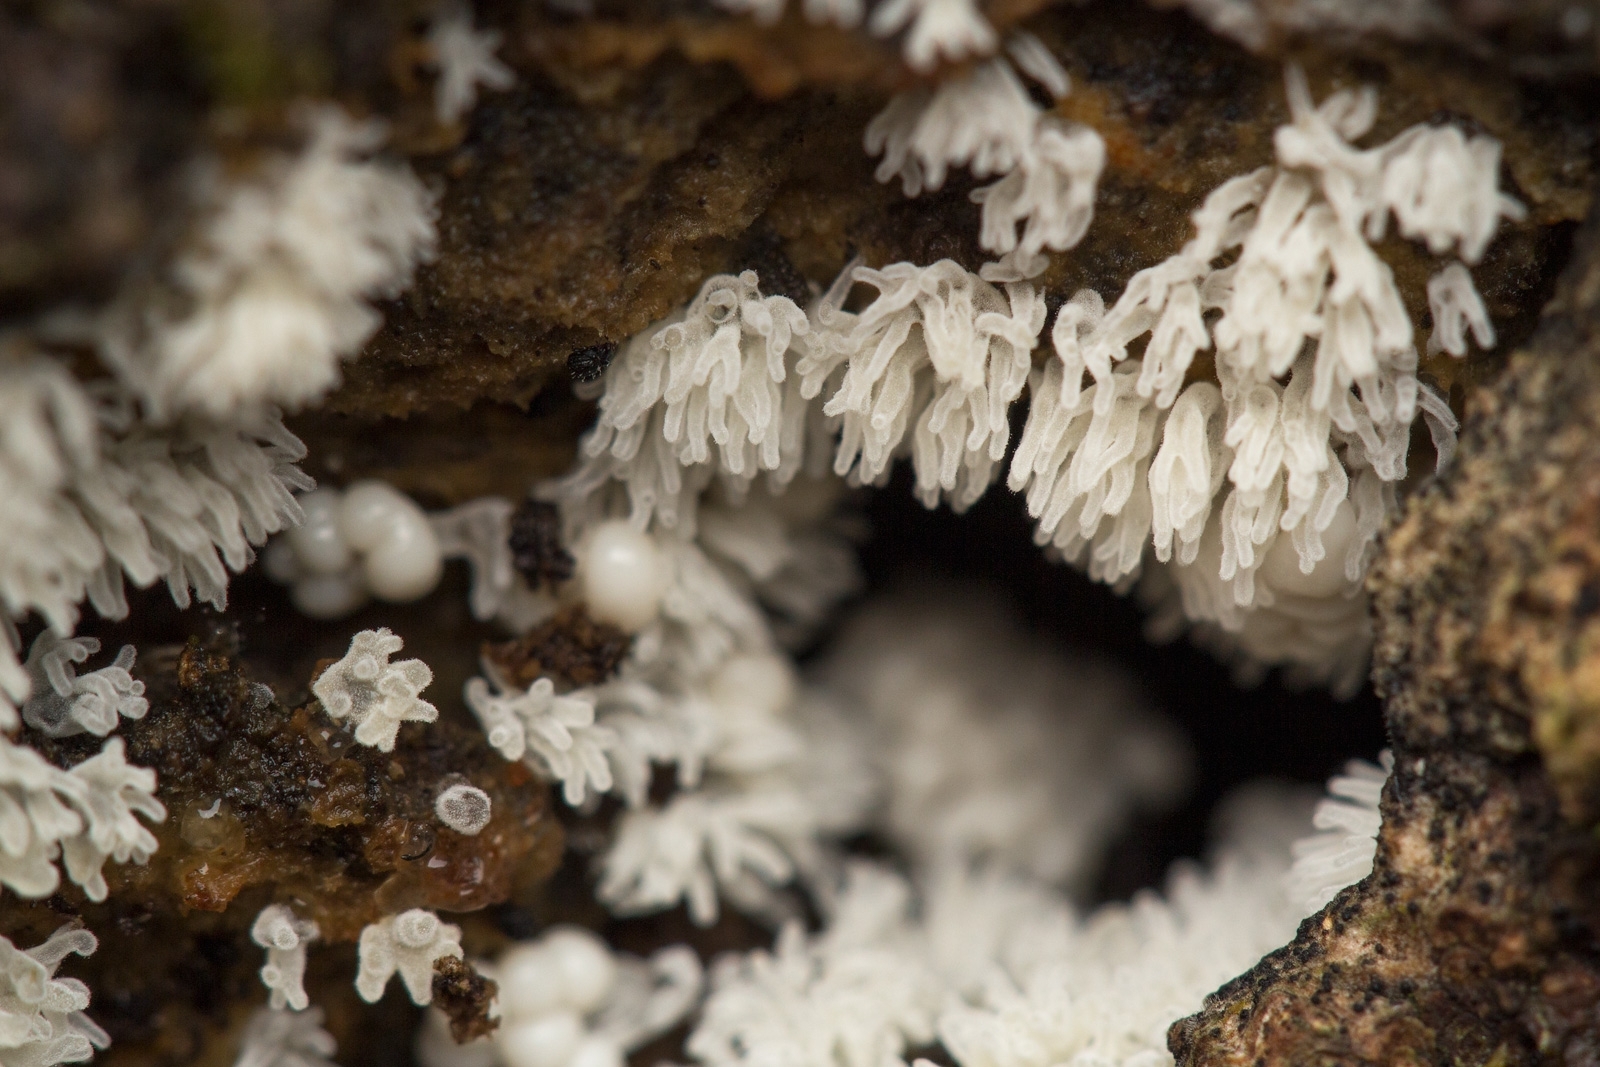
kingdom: Protozoa
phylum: Mycetozoa
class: Protosteliomycetes
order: Ceratiomyxales
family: Ceratiomyxaceae
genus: Ceratiomyxa
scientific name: Ceratiomyxa fruticulosa
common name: Honeycomb coral slime mold
